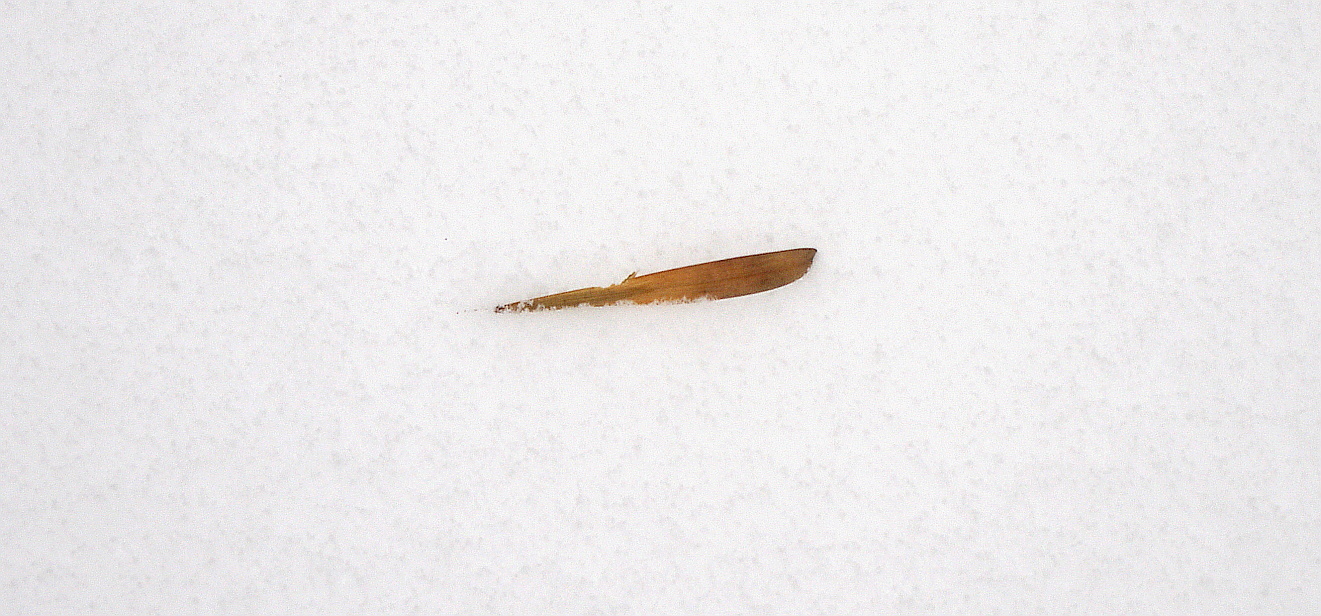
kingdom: Plantae
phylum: Tracheophyta
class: Magnoliopsida
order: Lamiales
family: Oleaceae
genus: Fraxinus
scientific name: Fraxinus pennsylvanica
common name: Green ash
